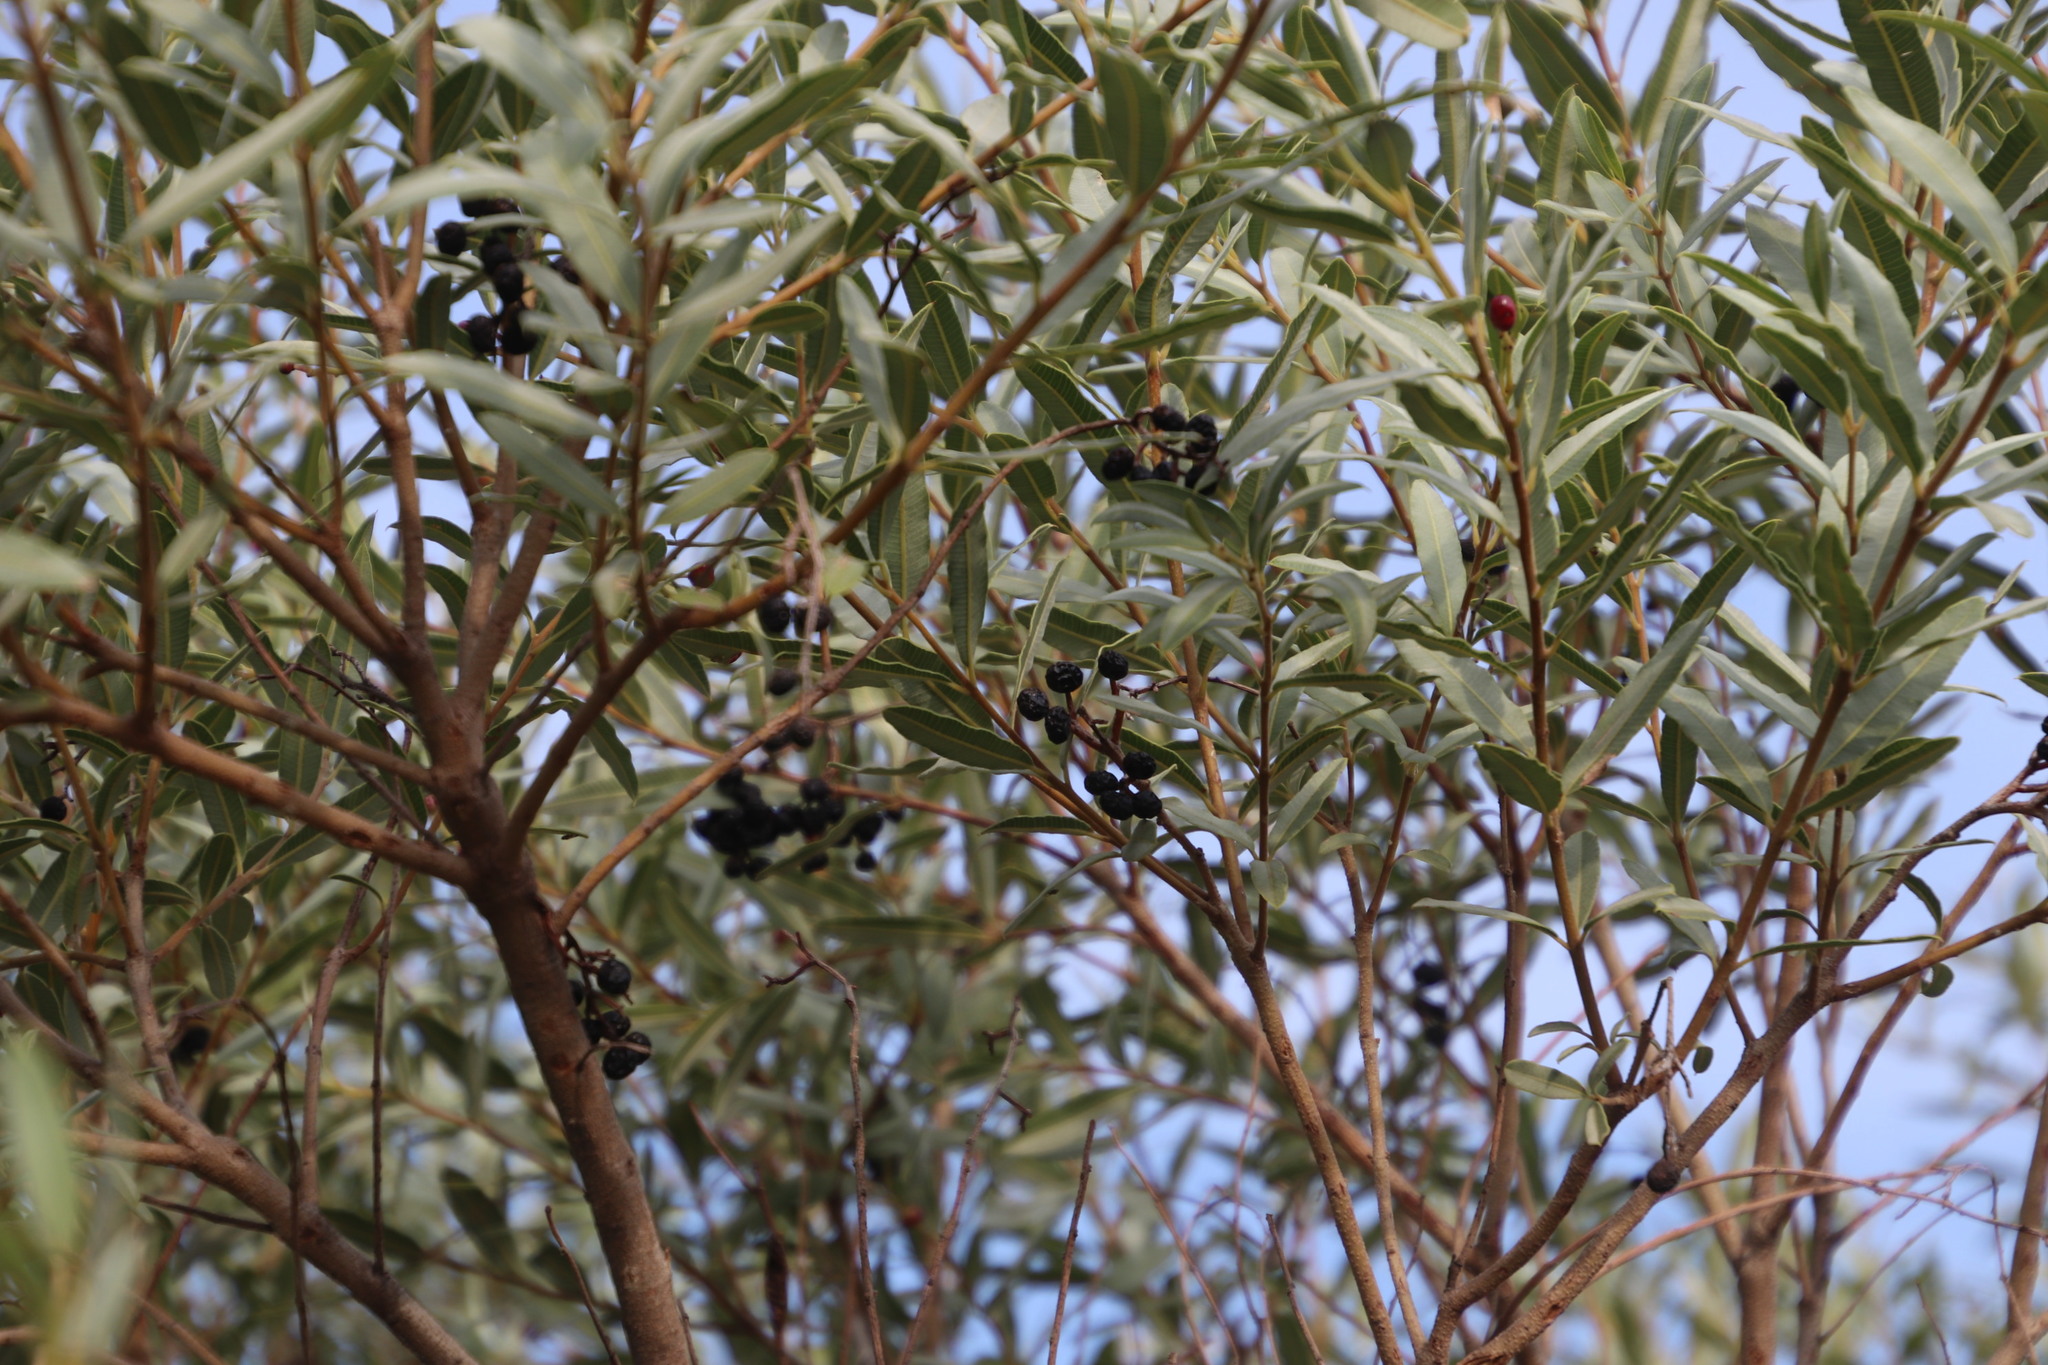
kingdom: Plantae
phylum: Tracheophyta
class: Magnoliopsida
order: Sapindales
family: Anacardiaceae
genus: Ozoroa
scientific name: Ozoroa paniculosa
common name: Bushveld ozoroa
